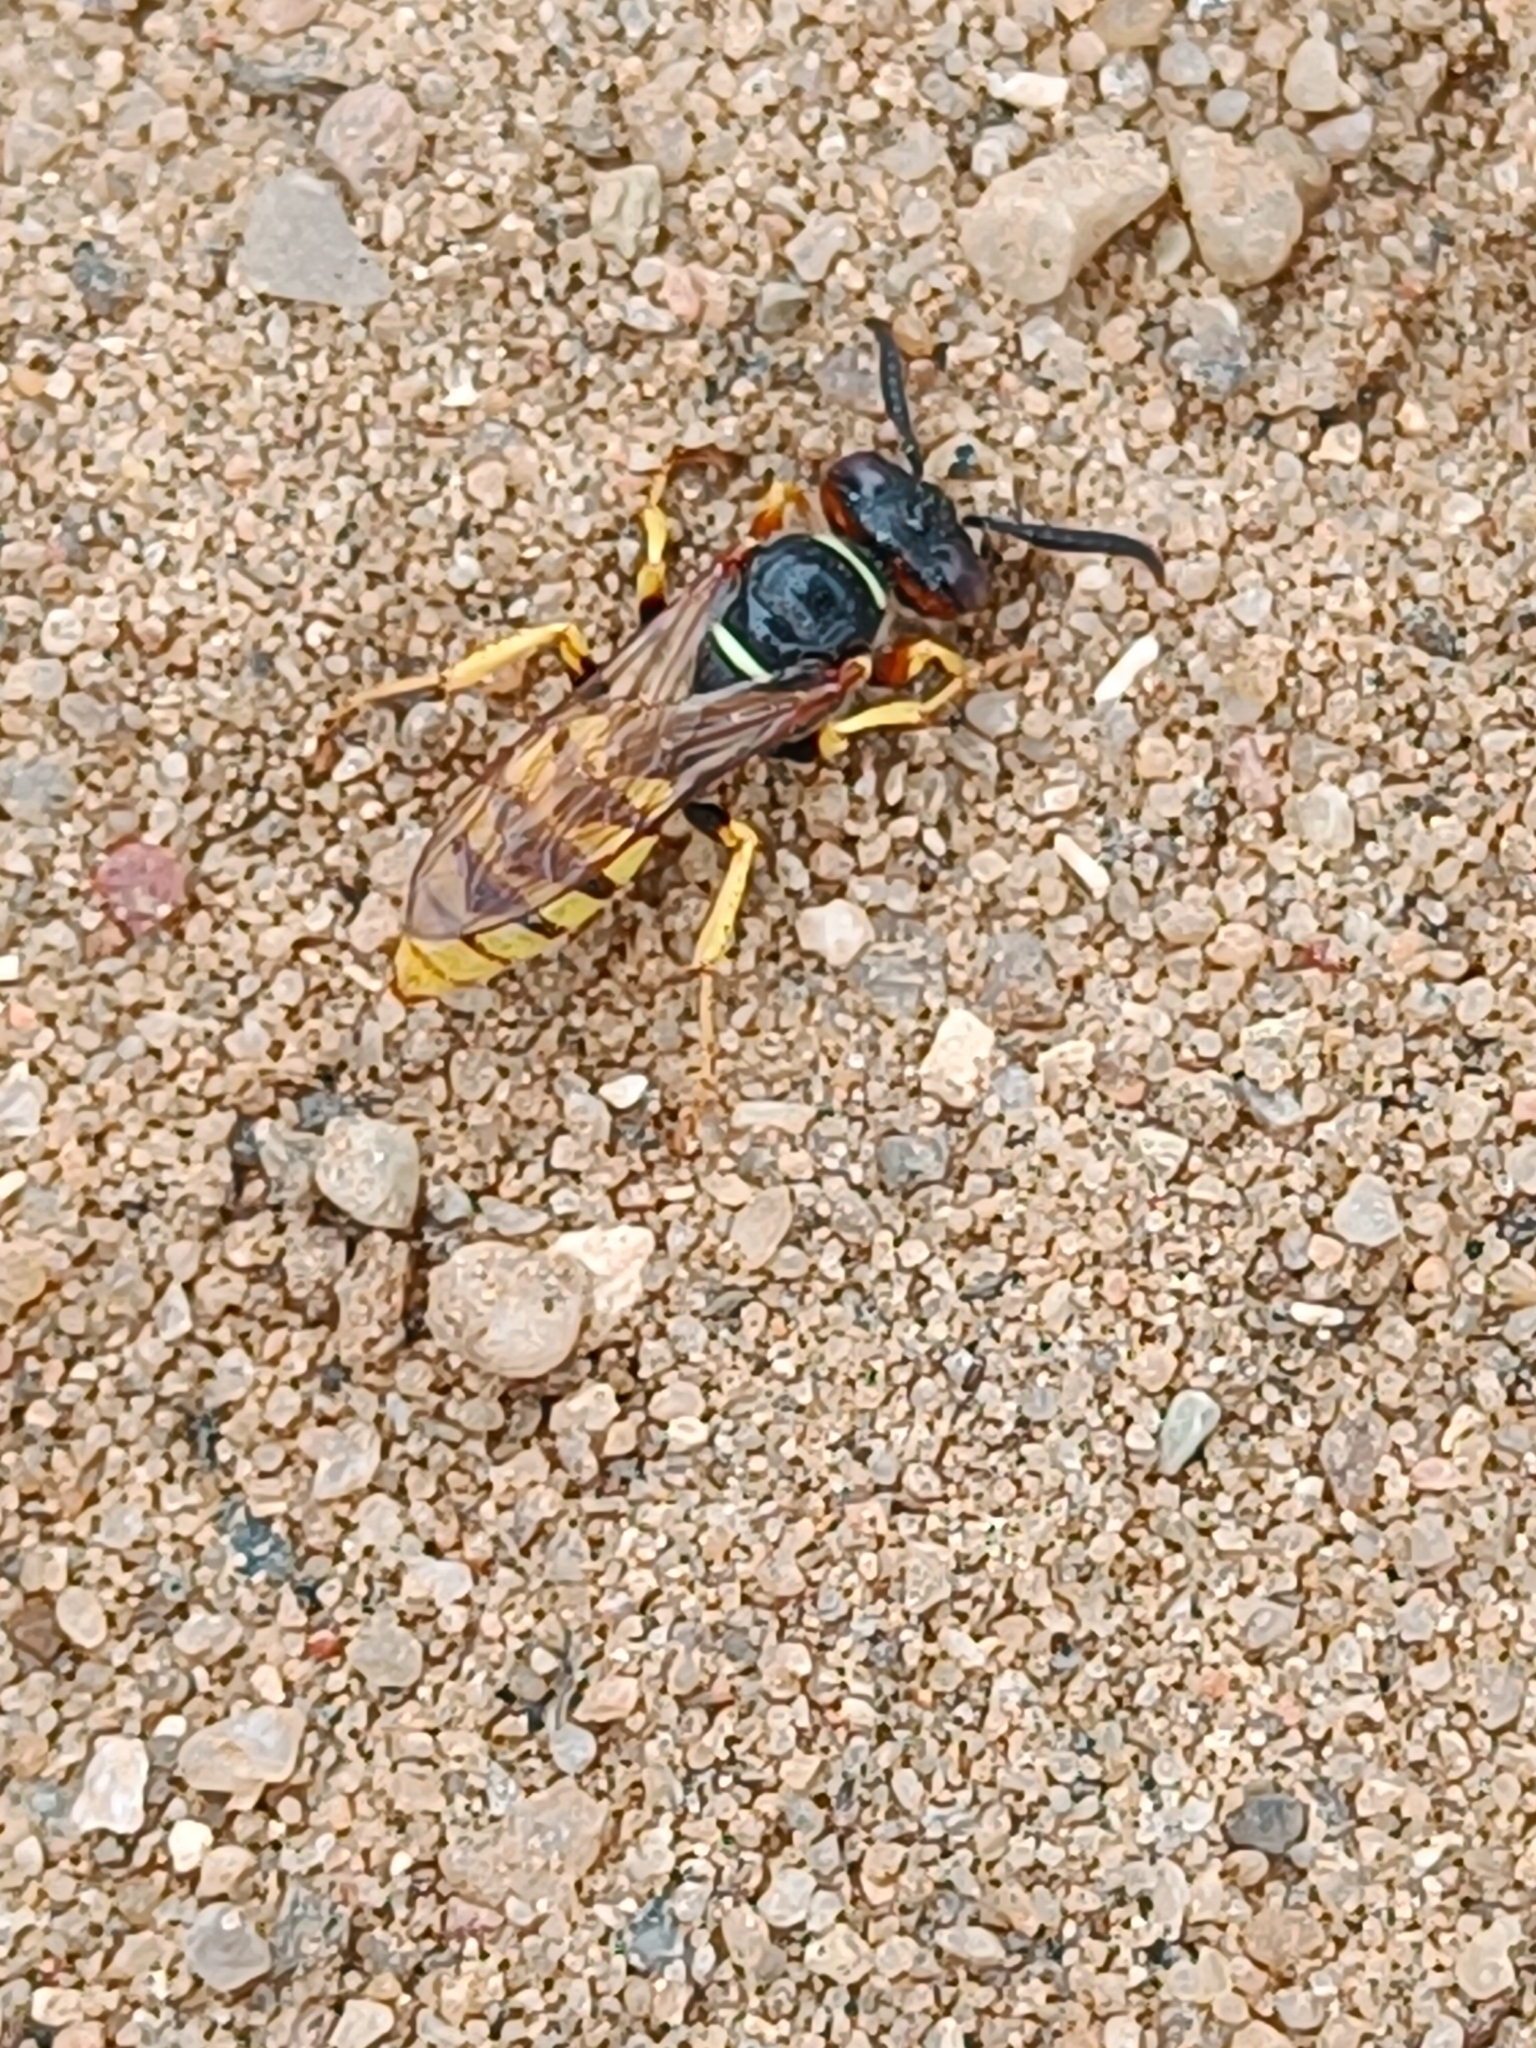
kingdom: Animalia
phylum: Arthropoda
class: Insecta
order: Hymenoptera
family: Crabronidae
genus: Philanthus
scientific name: Philanthus triangulum
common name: Bee wolf
